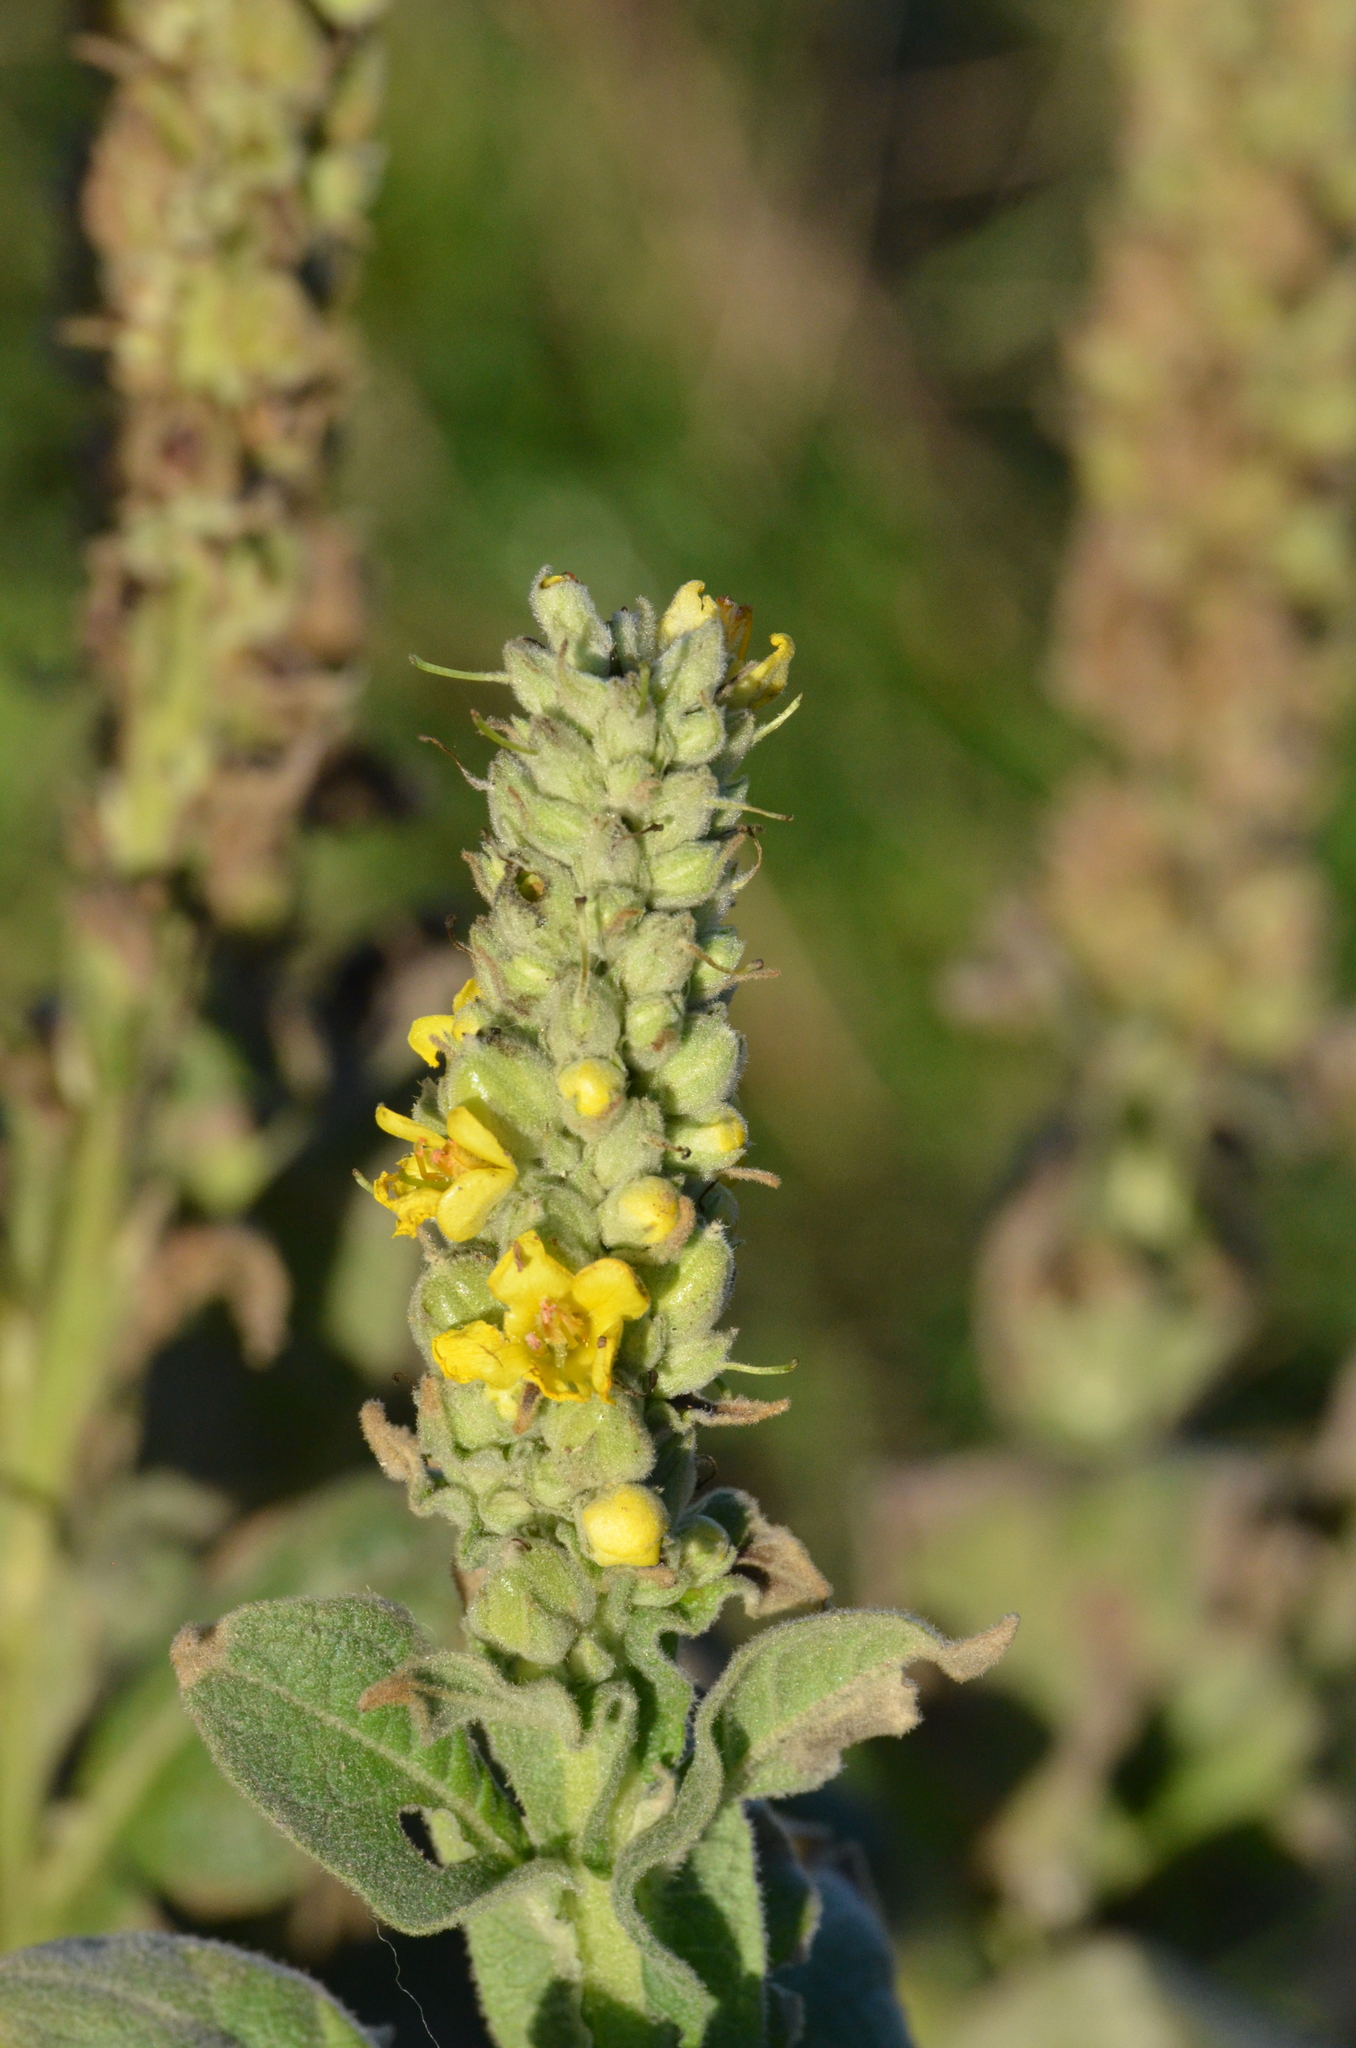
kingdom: Plantae
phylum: Tracheophyta
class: Magnoliopsida
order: Lamiales
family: Scrophulariaceae
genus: Verbascum
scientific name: Verbascum thapsus
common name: Common mullein
